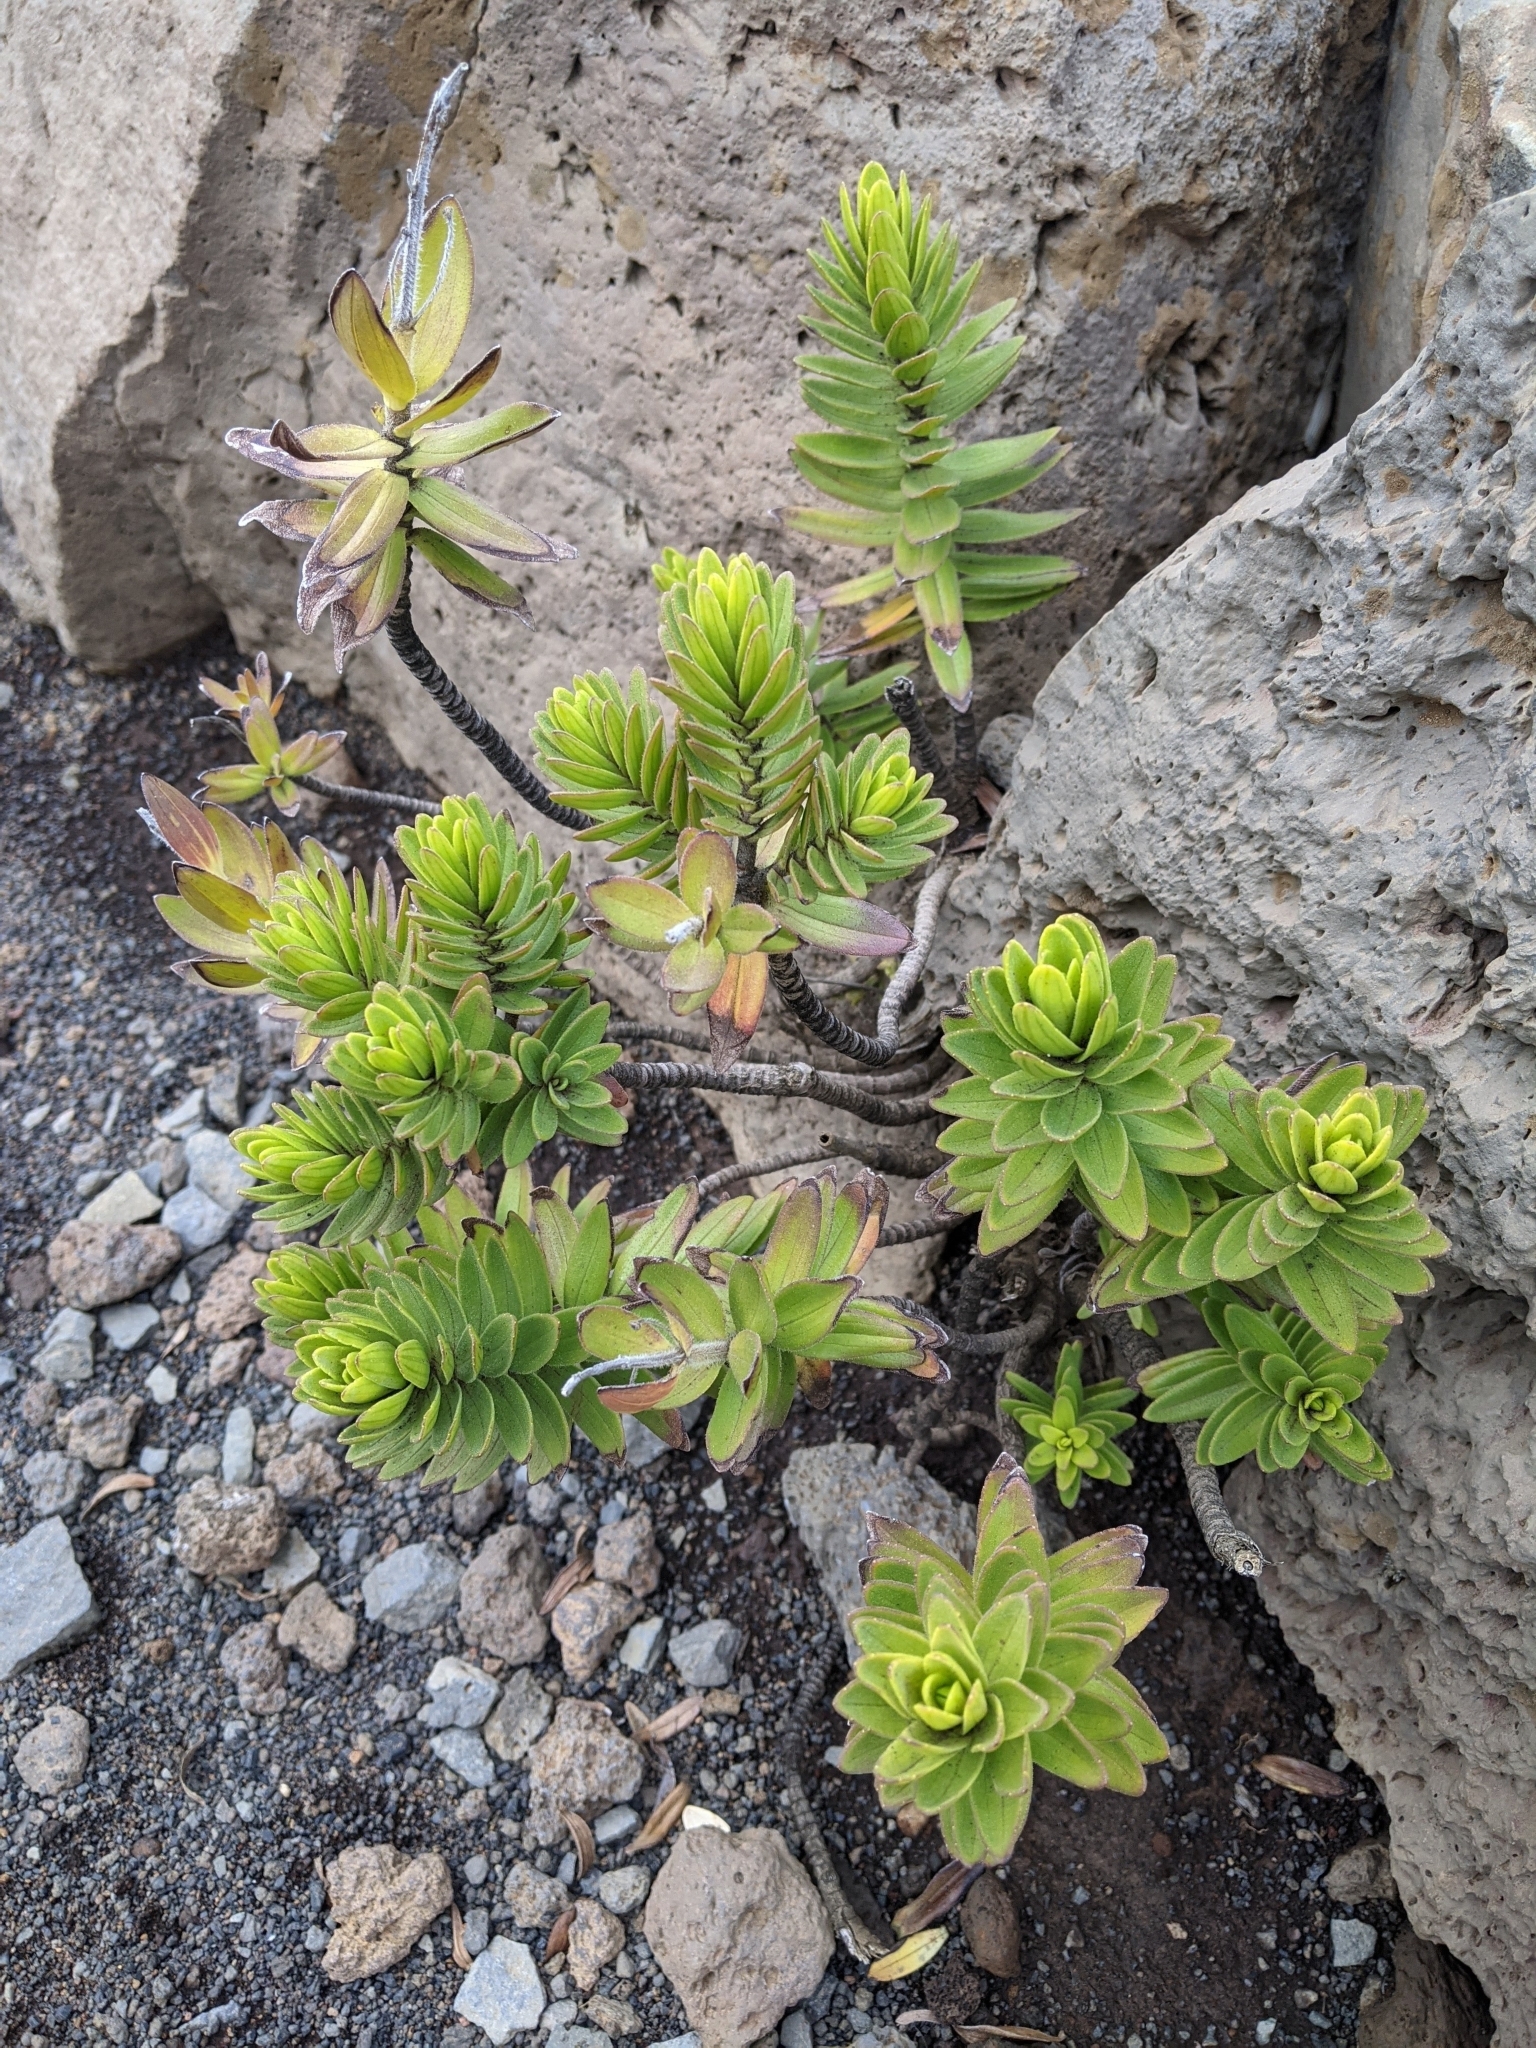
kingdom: Plantae
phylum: Tracheophyta
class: Magnoliopsida
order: Asterales
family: Asteraceae
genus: Dubautia
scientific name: Dubautia menziesii
